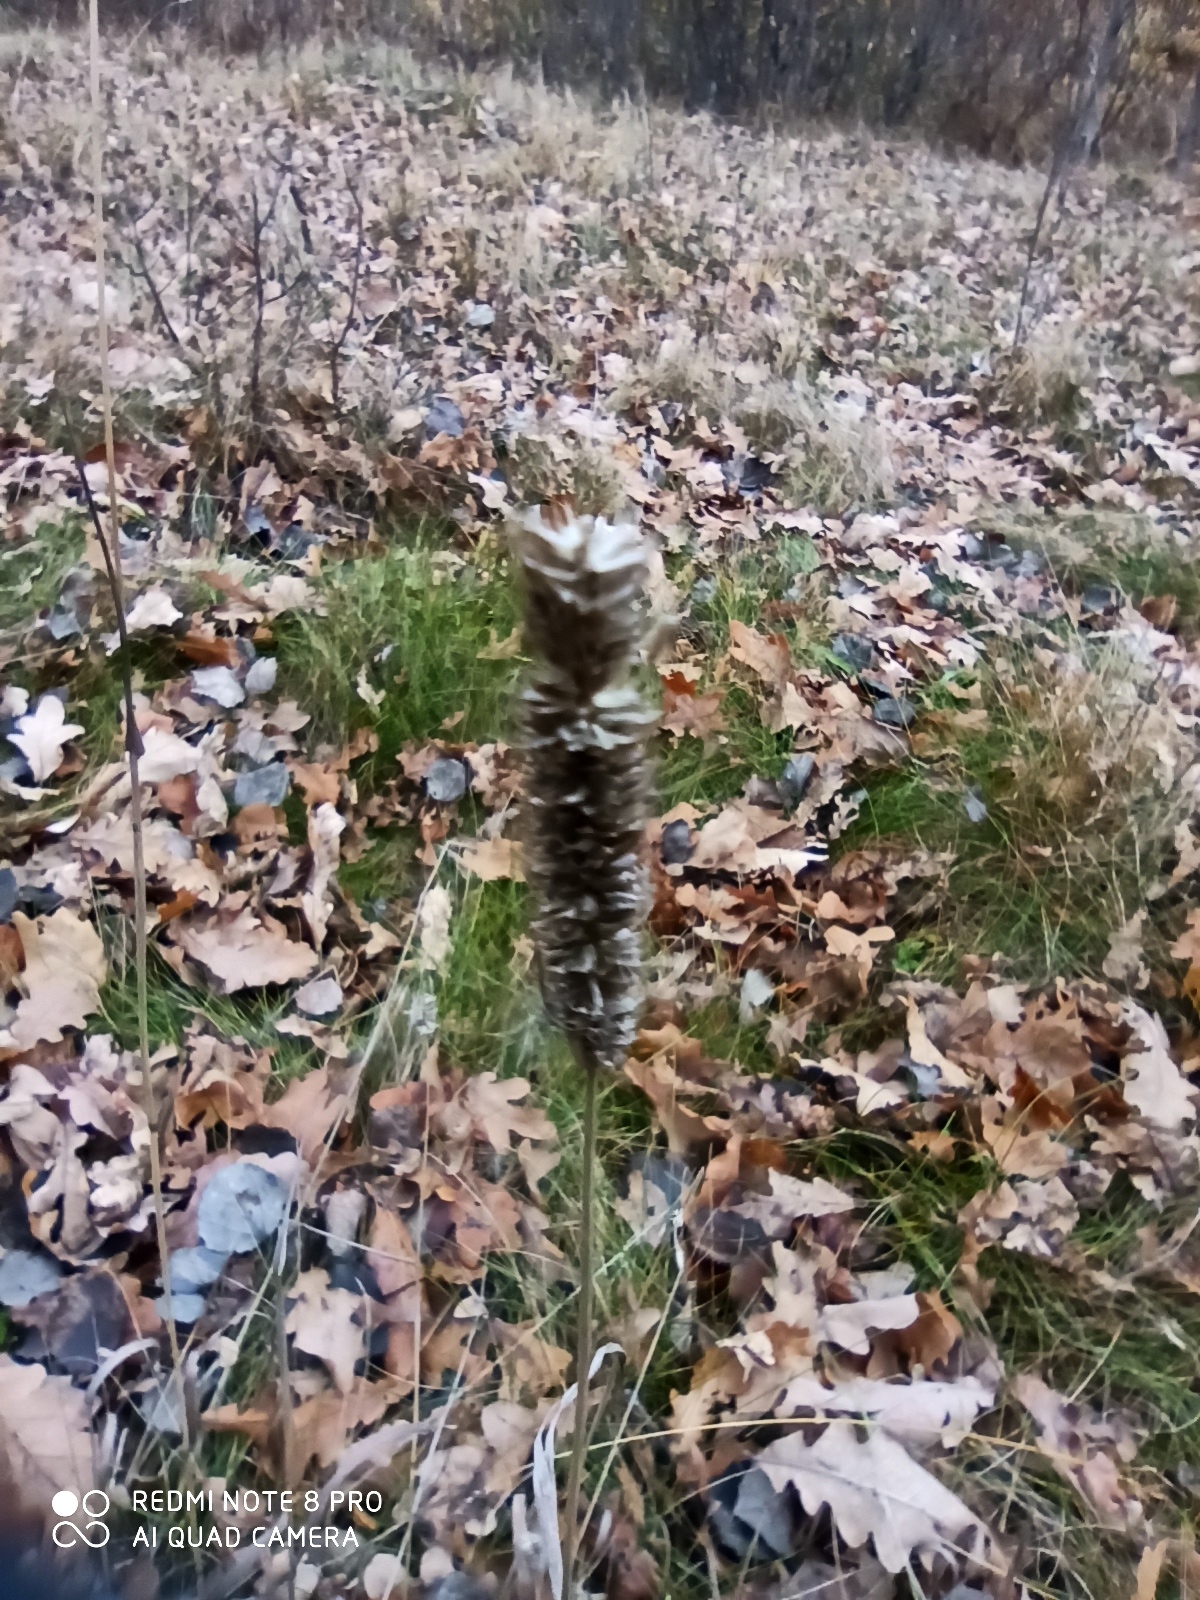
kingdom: Plantae
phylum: Tracheophyta
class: Liliopsida
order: Poales
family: Poaceae
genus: Phleum
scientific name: Phleum pratense
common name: Timothy grass
